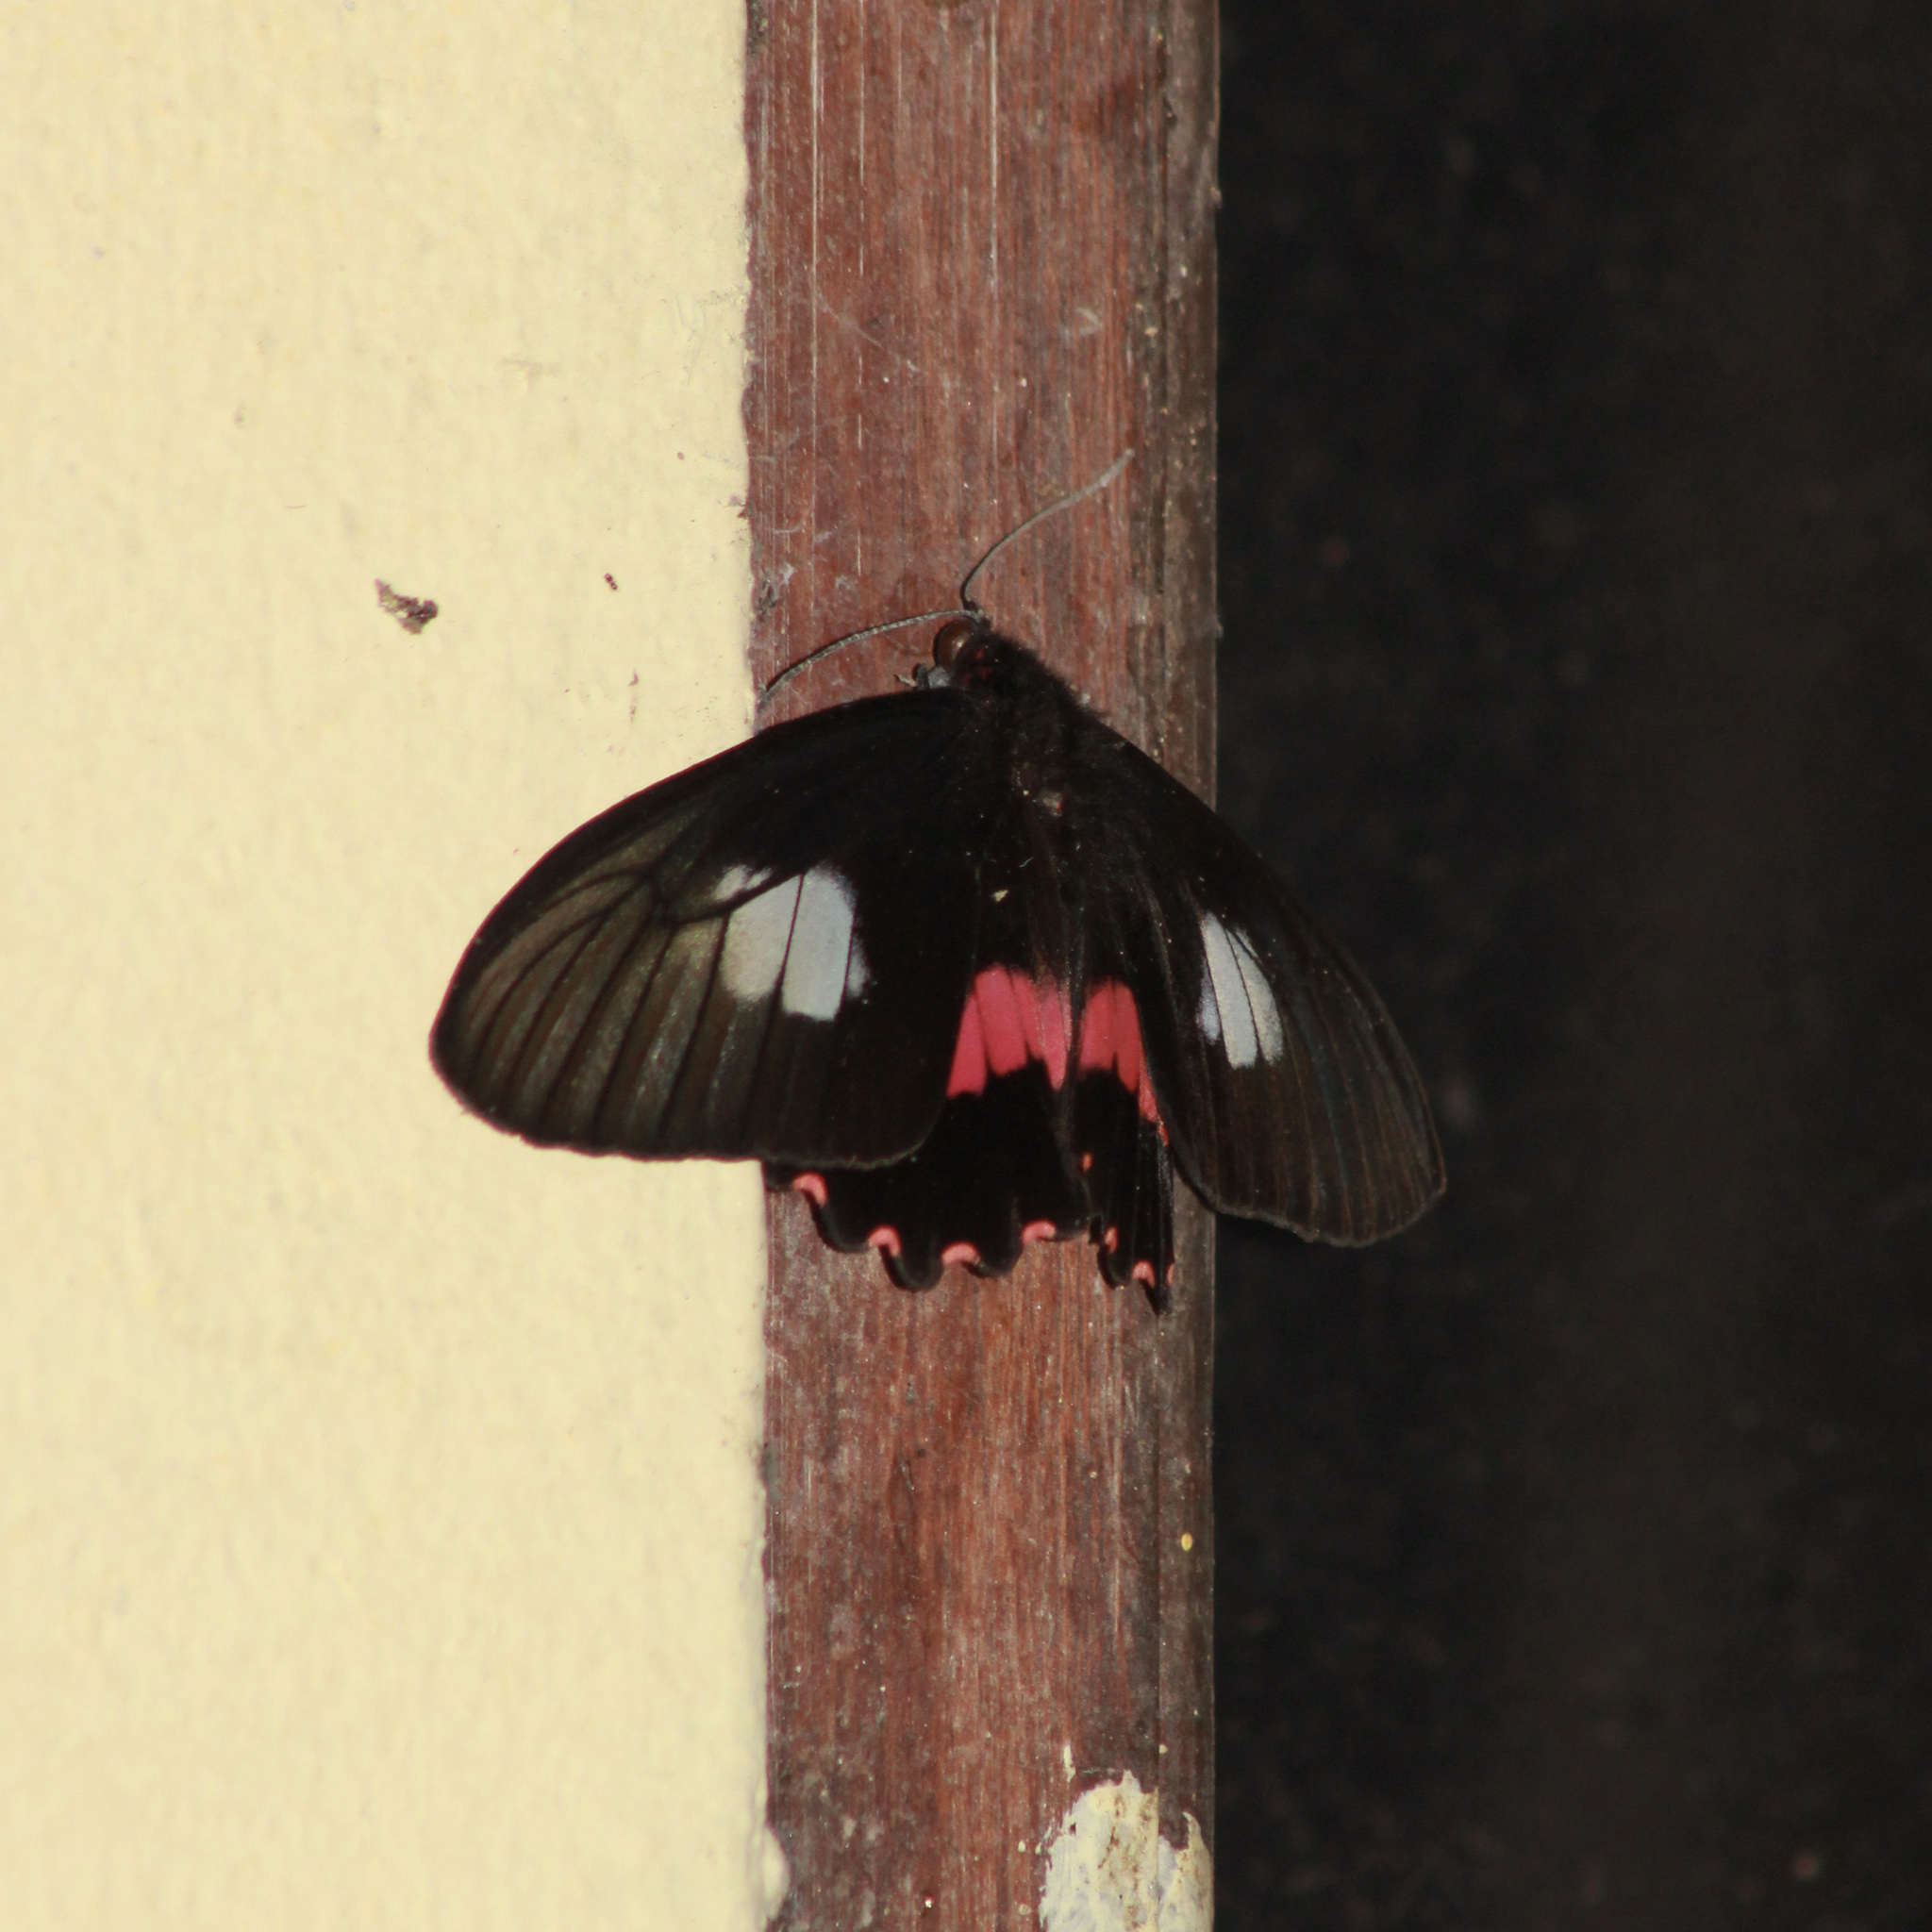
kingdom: Animalia
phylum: Arthropoda
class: Insecta
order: Lepidoptera
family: Papilionidae
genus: Parides
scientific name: Parides neophilus
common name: Spear-winged cattle heart
